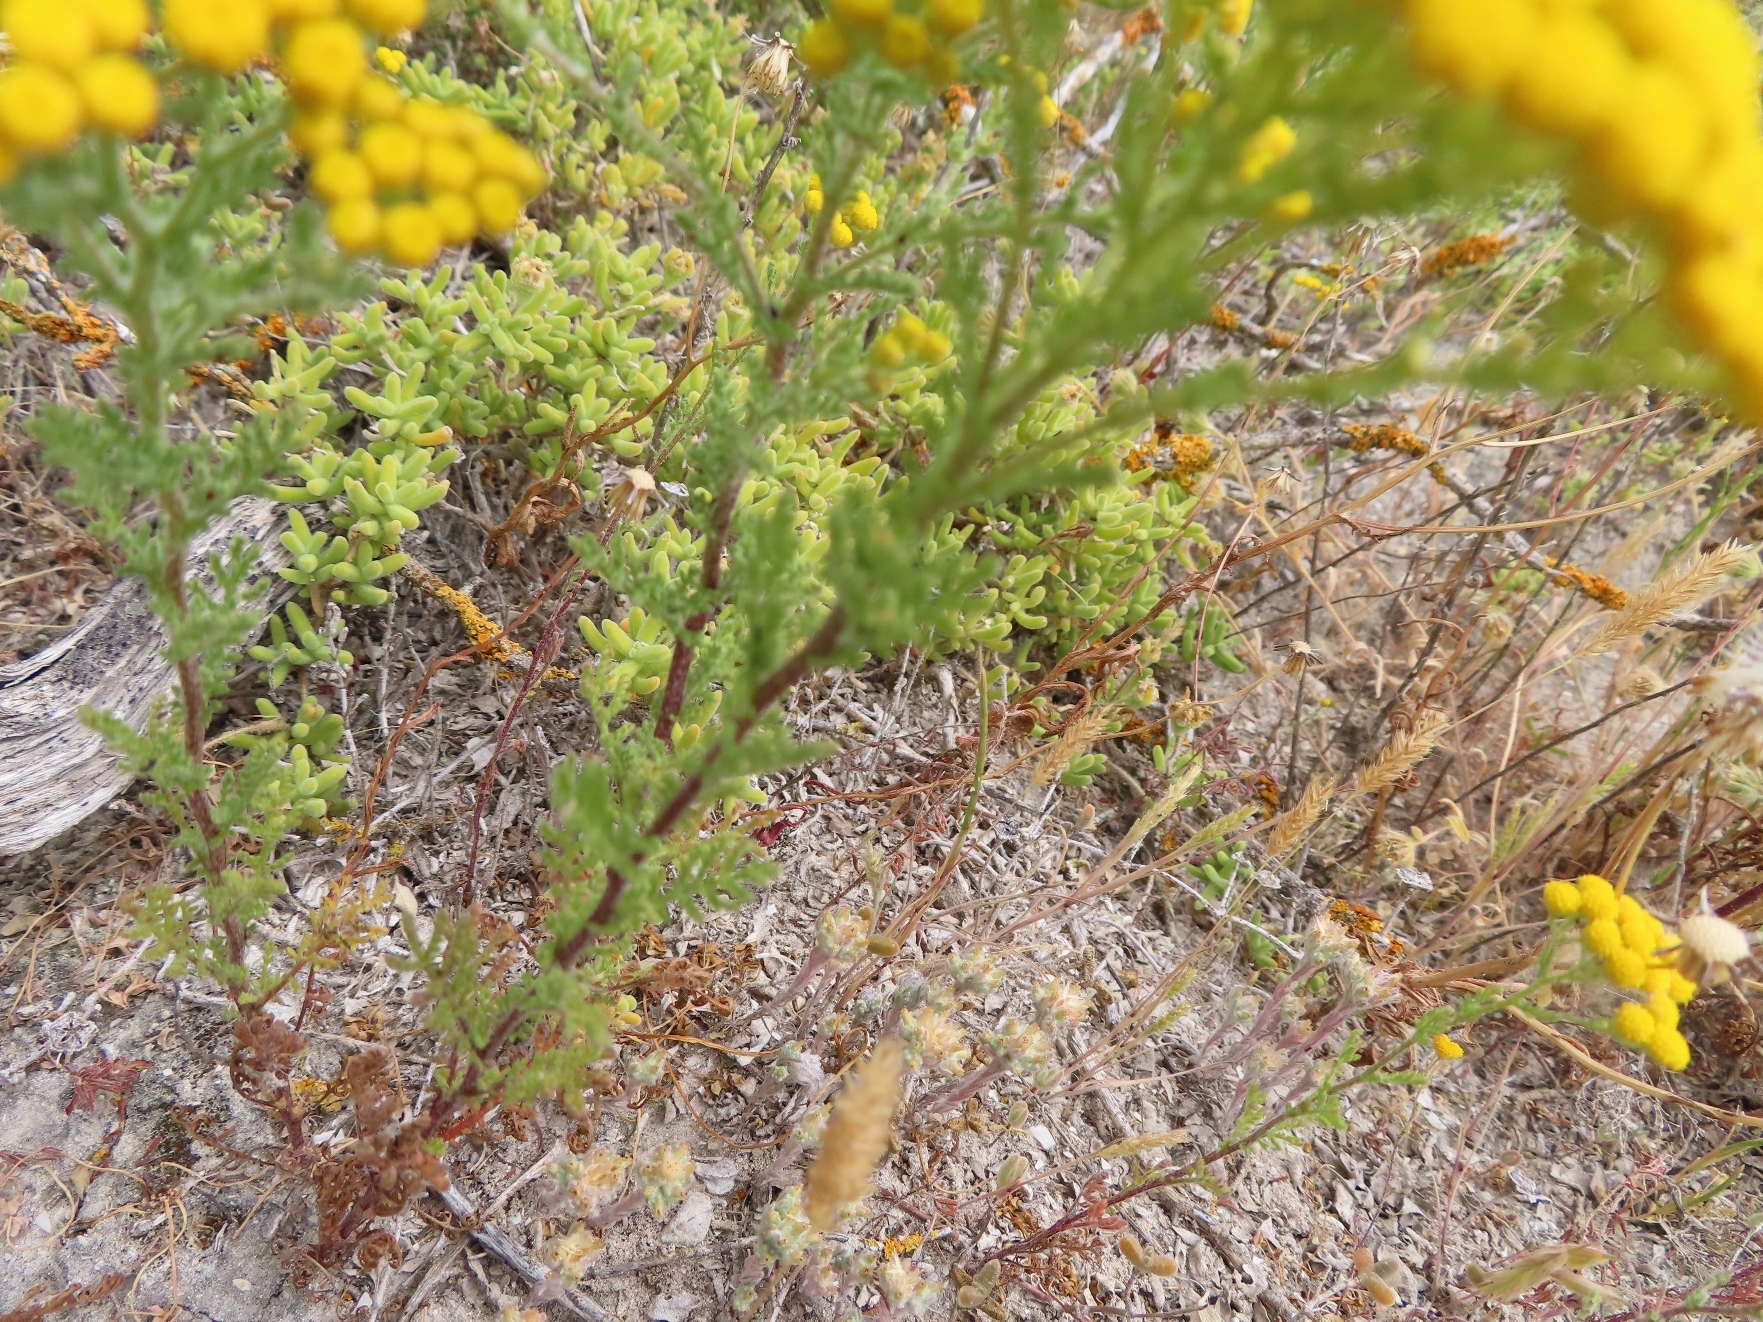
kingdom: Plantae
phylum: Tracheophyta
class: Magnoliopsida
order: Asterales
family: Asteraceae
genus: Oncosiphon
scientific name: Oncosiphon suffruticosus
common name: Shrubby mayweed
